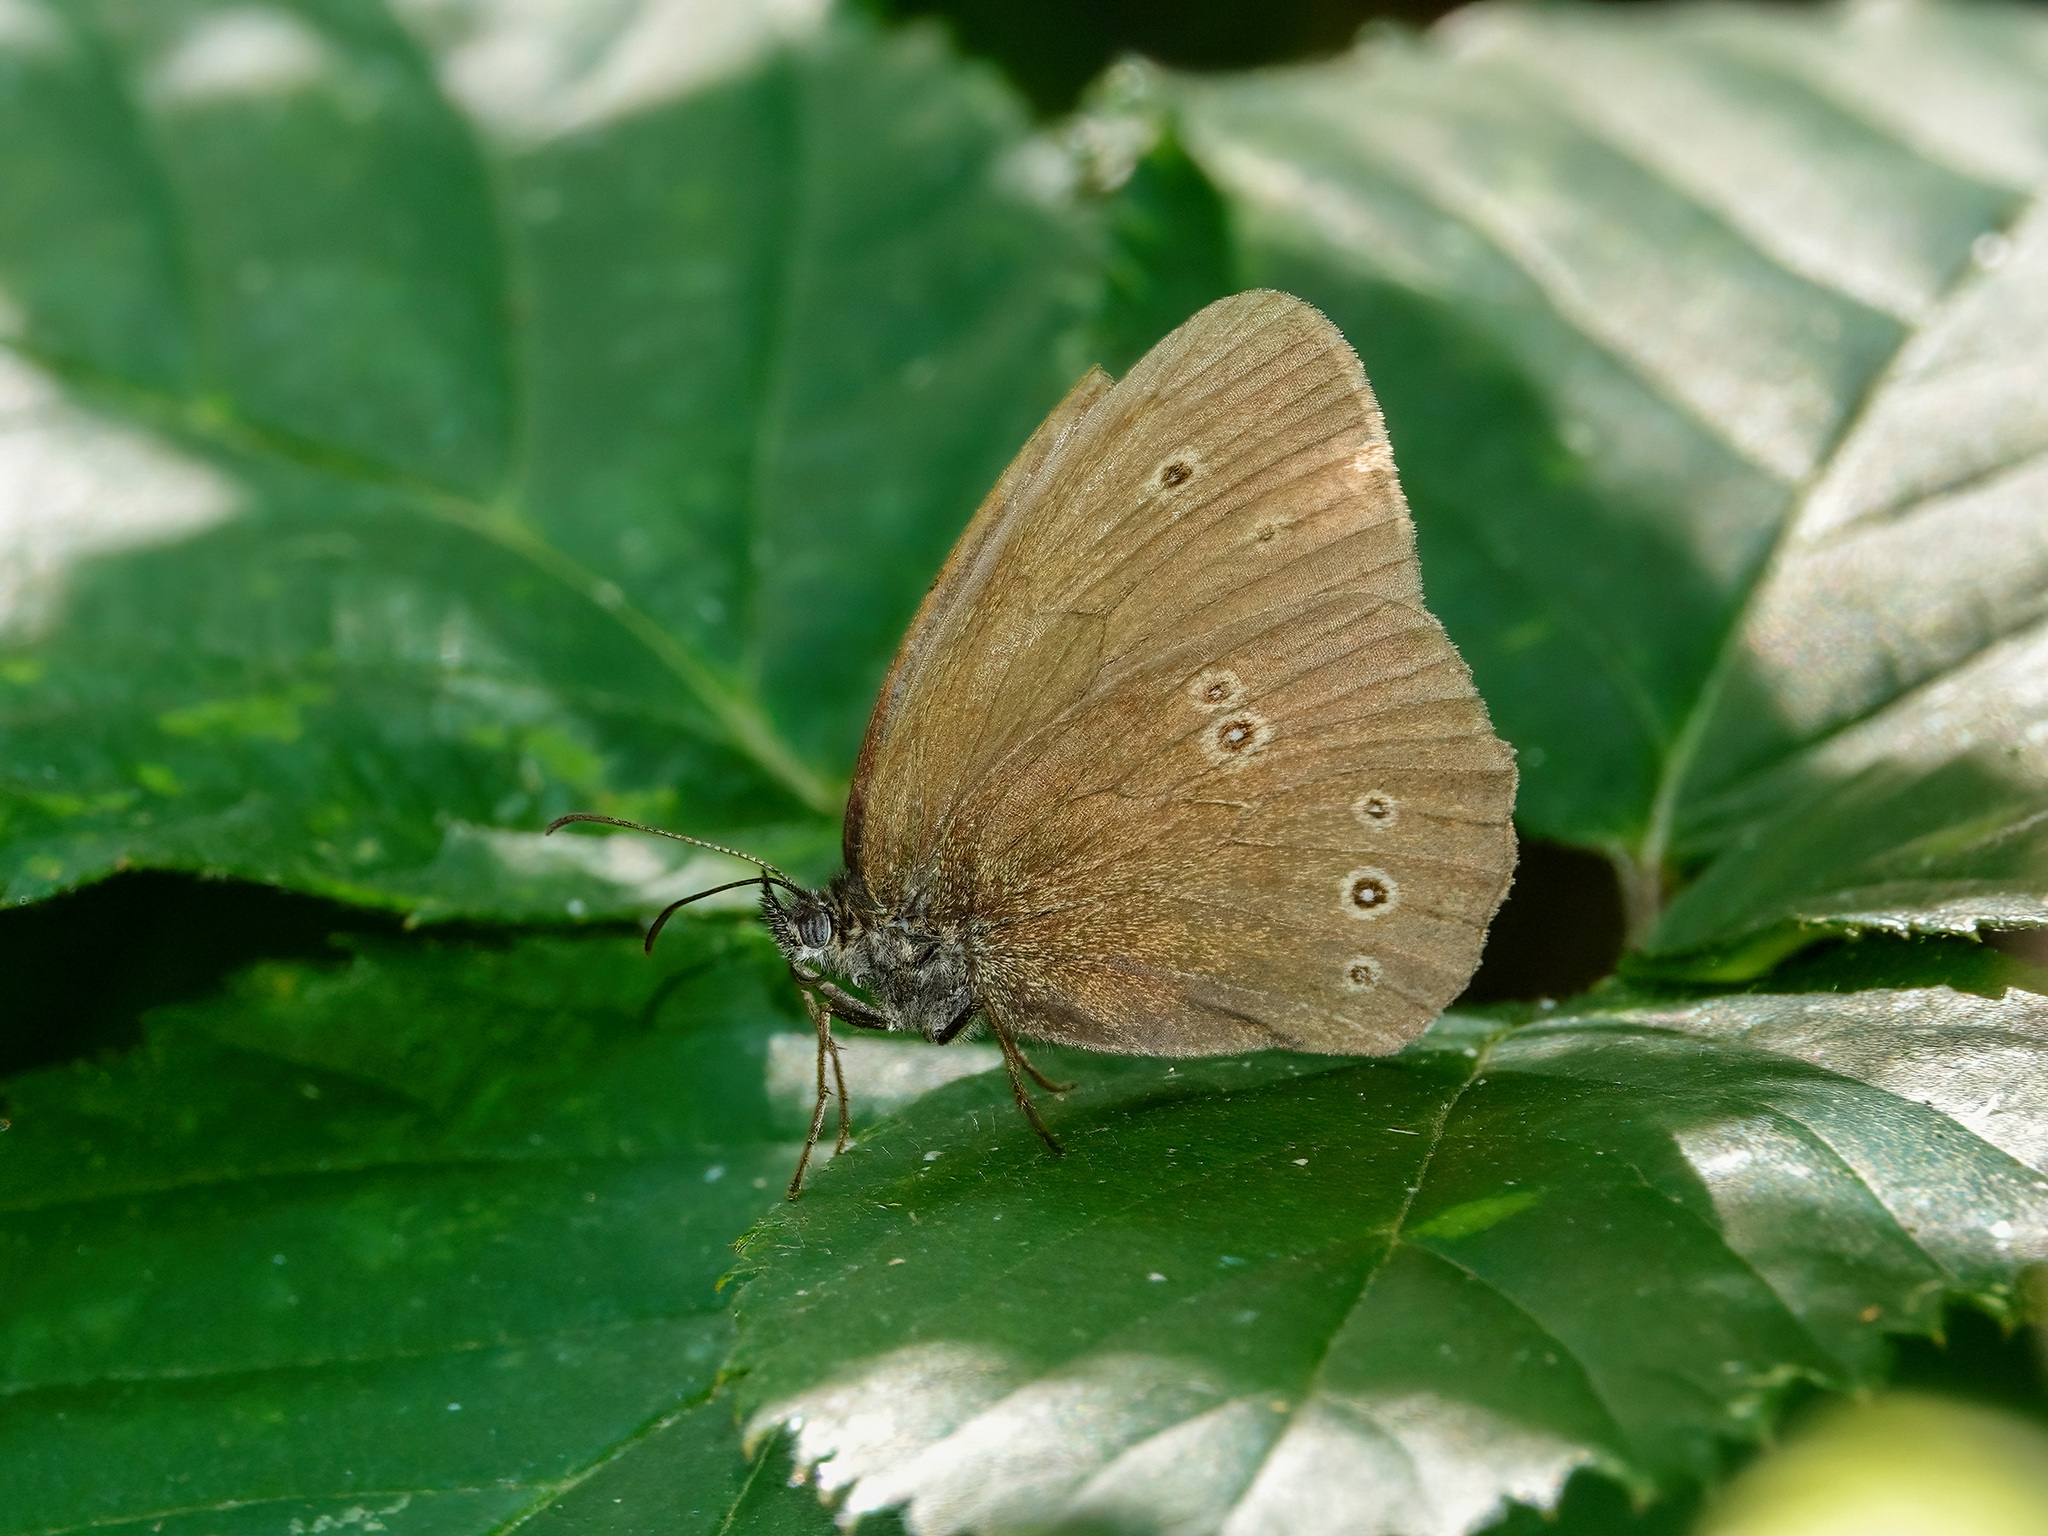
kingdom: Animalia
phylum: Arthropoda
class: Insecta
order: Lepidoptera
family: Nymphalidae
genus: Aphantopus
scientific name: Aphantopus hyperantus
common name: Ringlet
